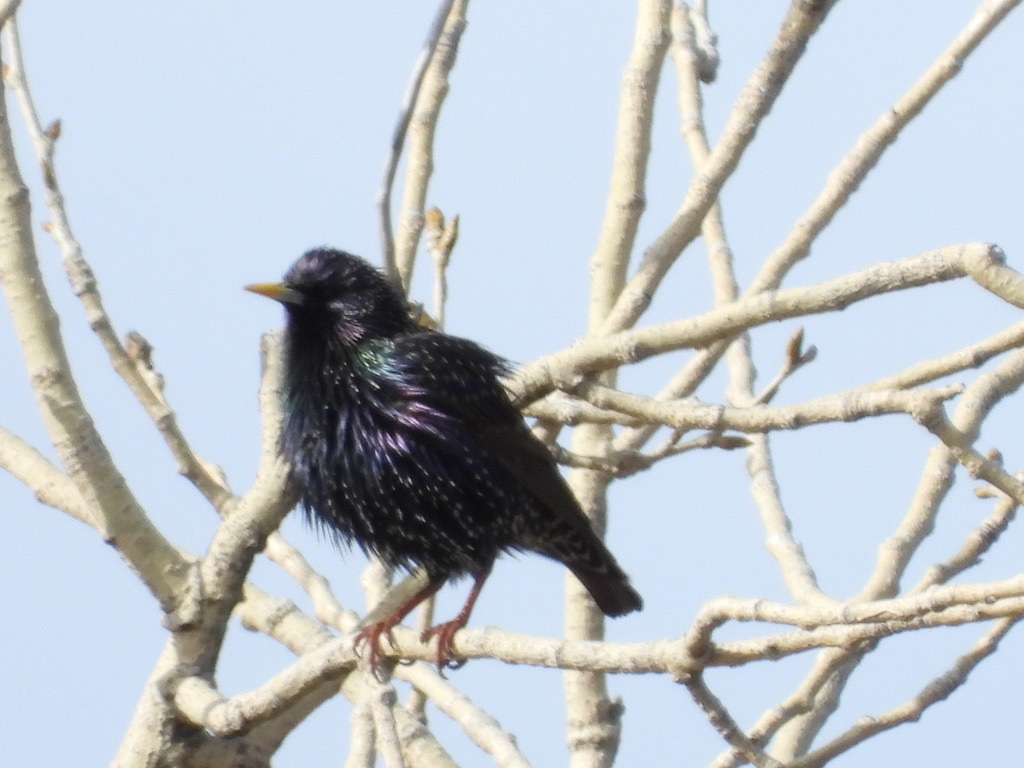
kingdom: Animalia
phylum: Chordata
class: Aves
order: Passeriformes
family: Sturnidae
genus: Sturnus
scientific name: Sturnus vulgaris
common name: Common starling
